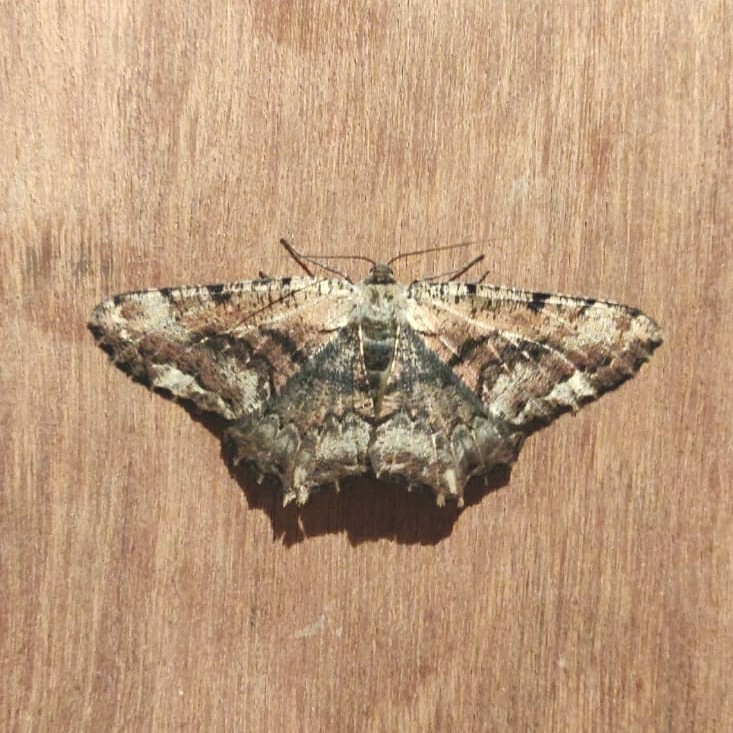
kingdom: Animalia
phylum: Arthropoda
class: Insecta
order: Lepidoptera
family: Geometridae
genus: Lassaba
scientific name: Lassaba interruptaria
